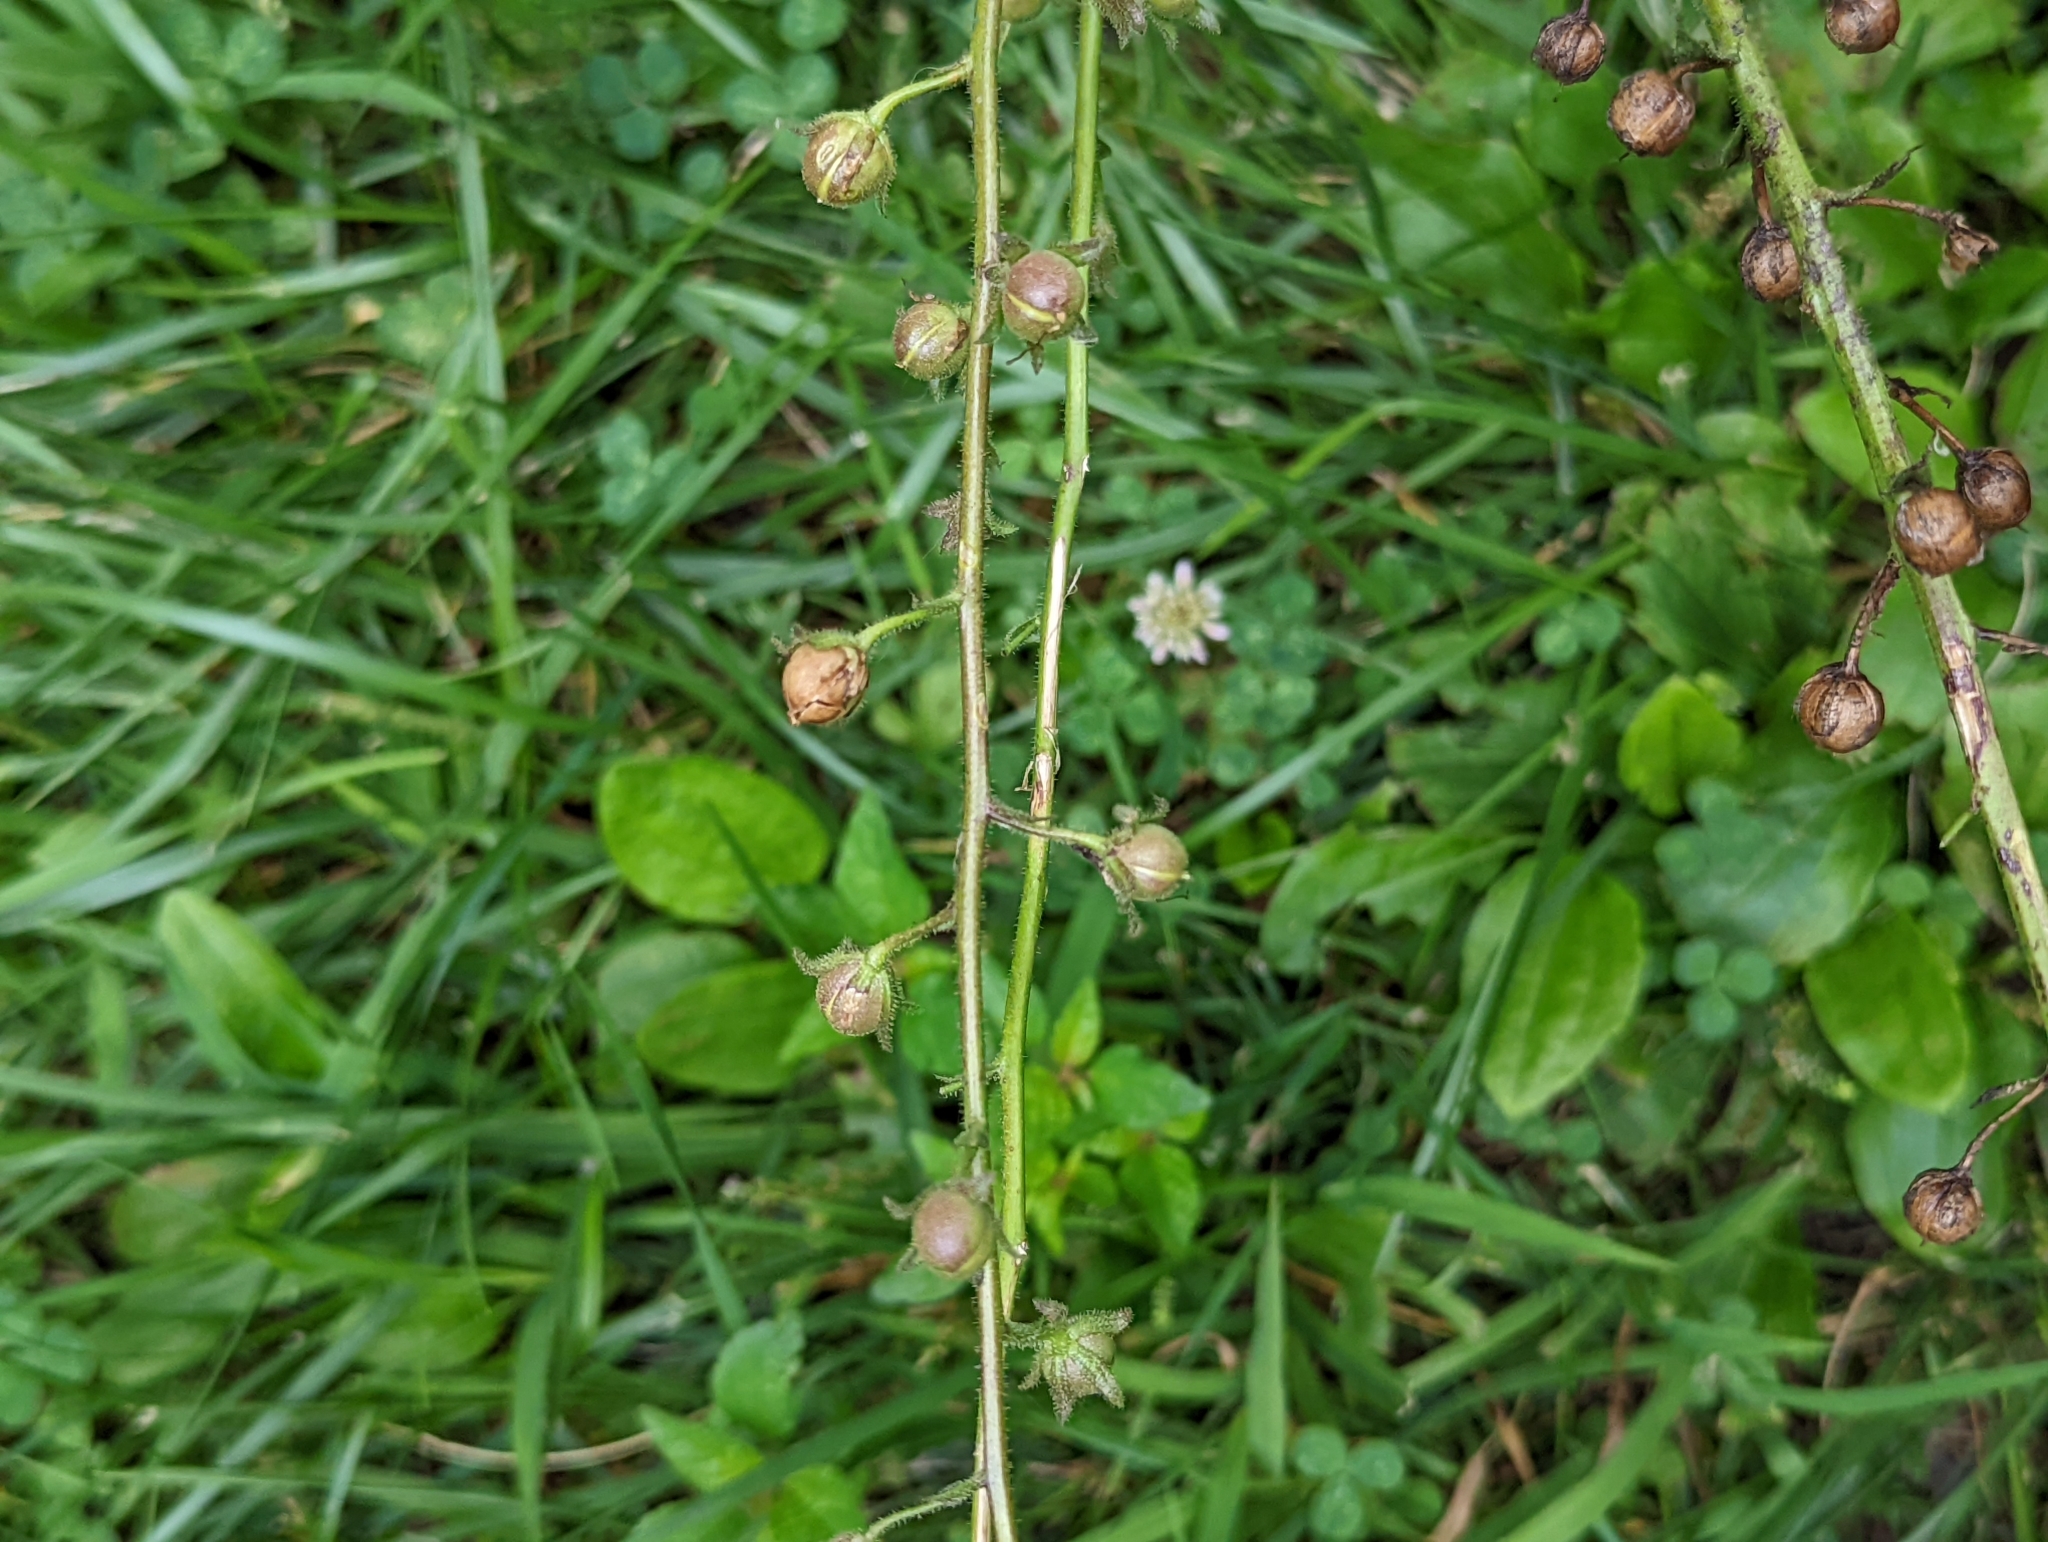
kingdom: Plantae
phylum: Tracheophyta
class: Magnoliopsida
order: Lamiales
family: Scrophulariaceae
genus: Verbascum
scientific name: Verbascum blattaria
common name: Moth mullein
